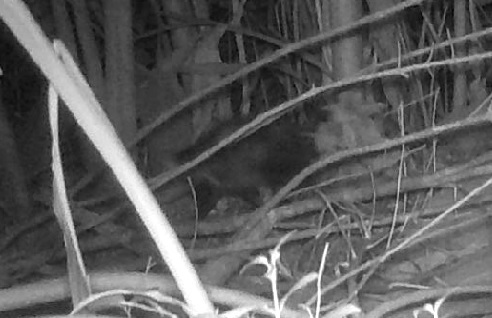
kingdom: Animalia
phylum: Chordata
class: Mammalia
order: Didelphimorphia
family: Didelphidae
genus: Didelphis
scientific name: Didelphis albiventris
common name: White-eared opossum
